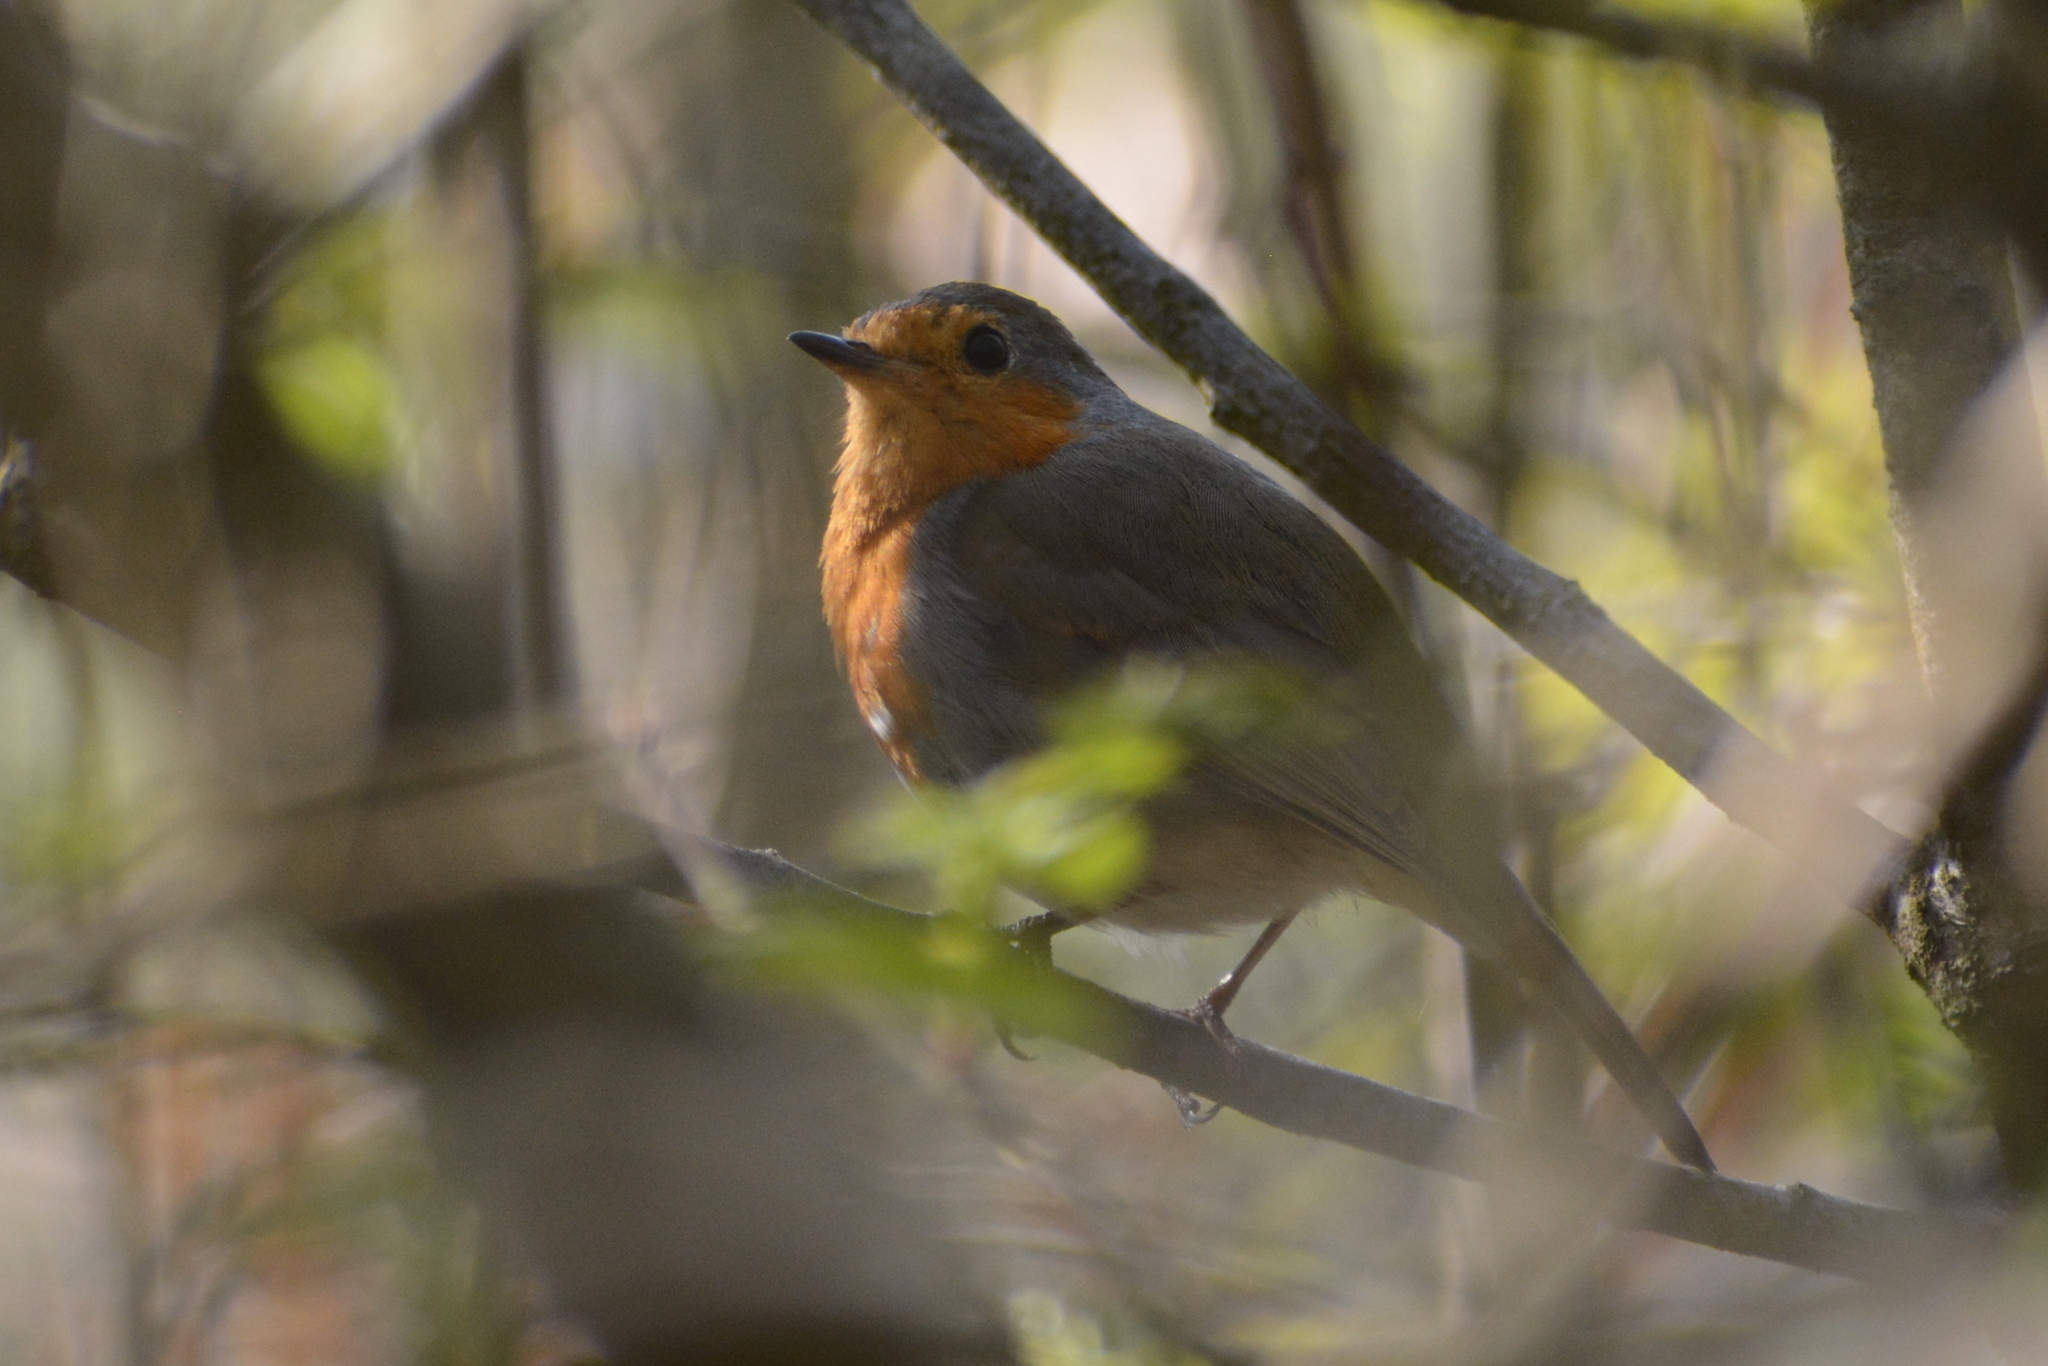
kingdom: Animalia
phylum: Chordata
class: Aves
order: Passeriformes
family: Muscicapidae
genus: Erithacus
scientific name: Erithacus rubecula
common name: European robin
